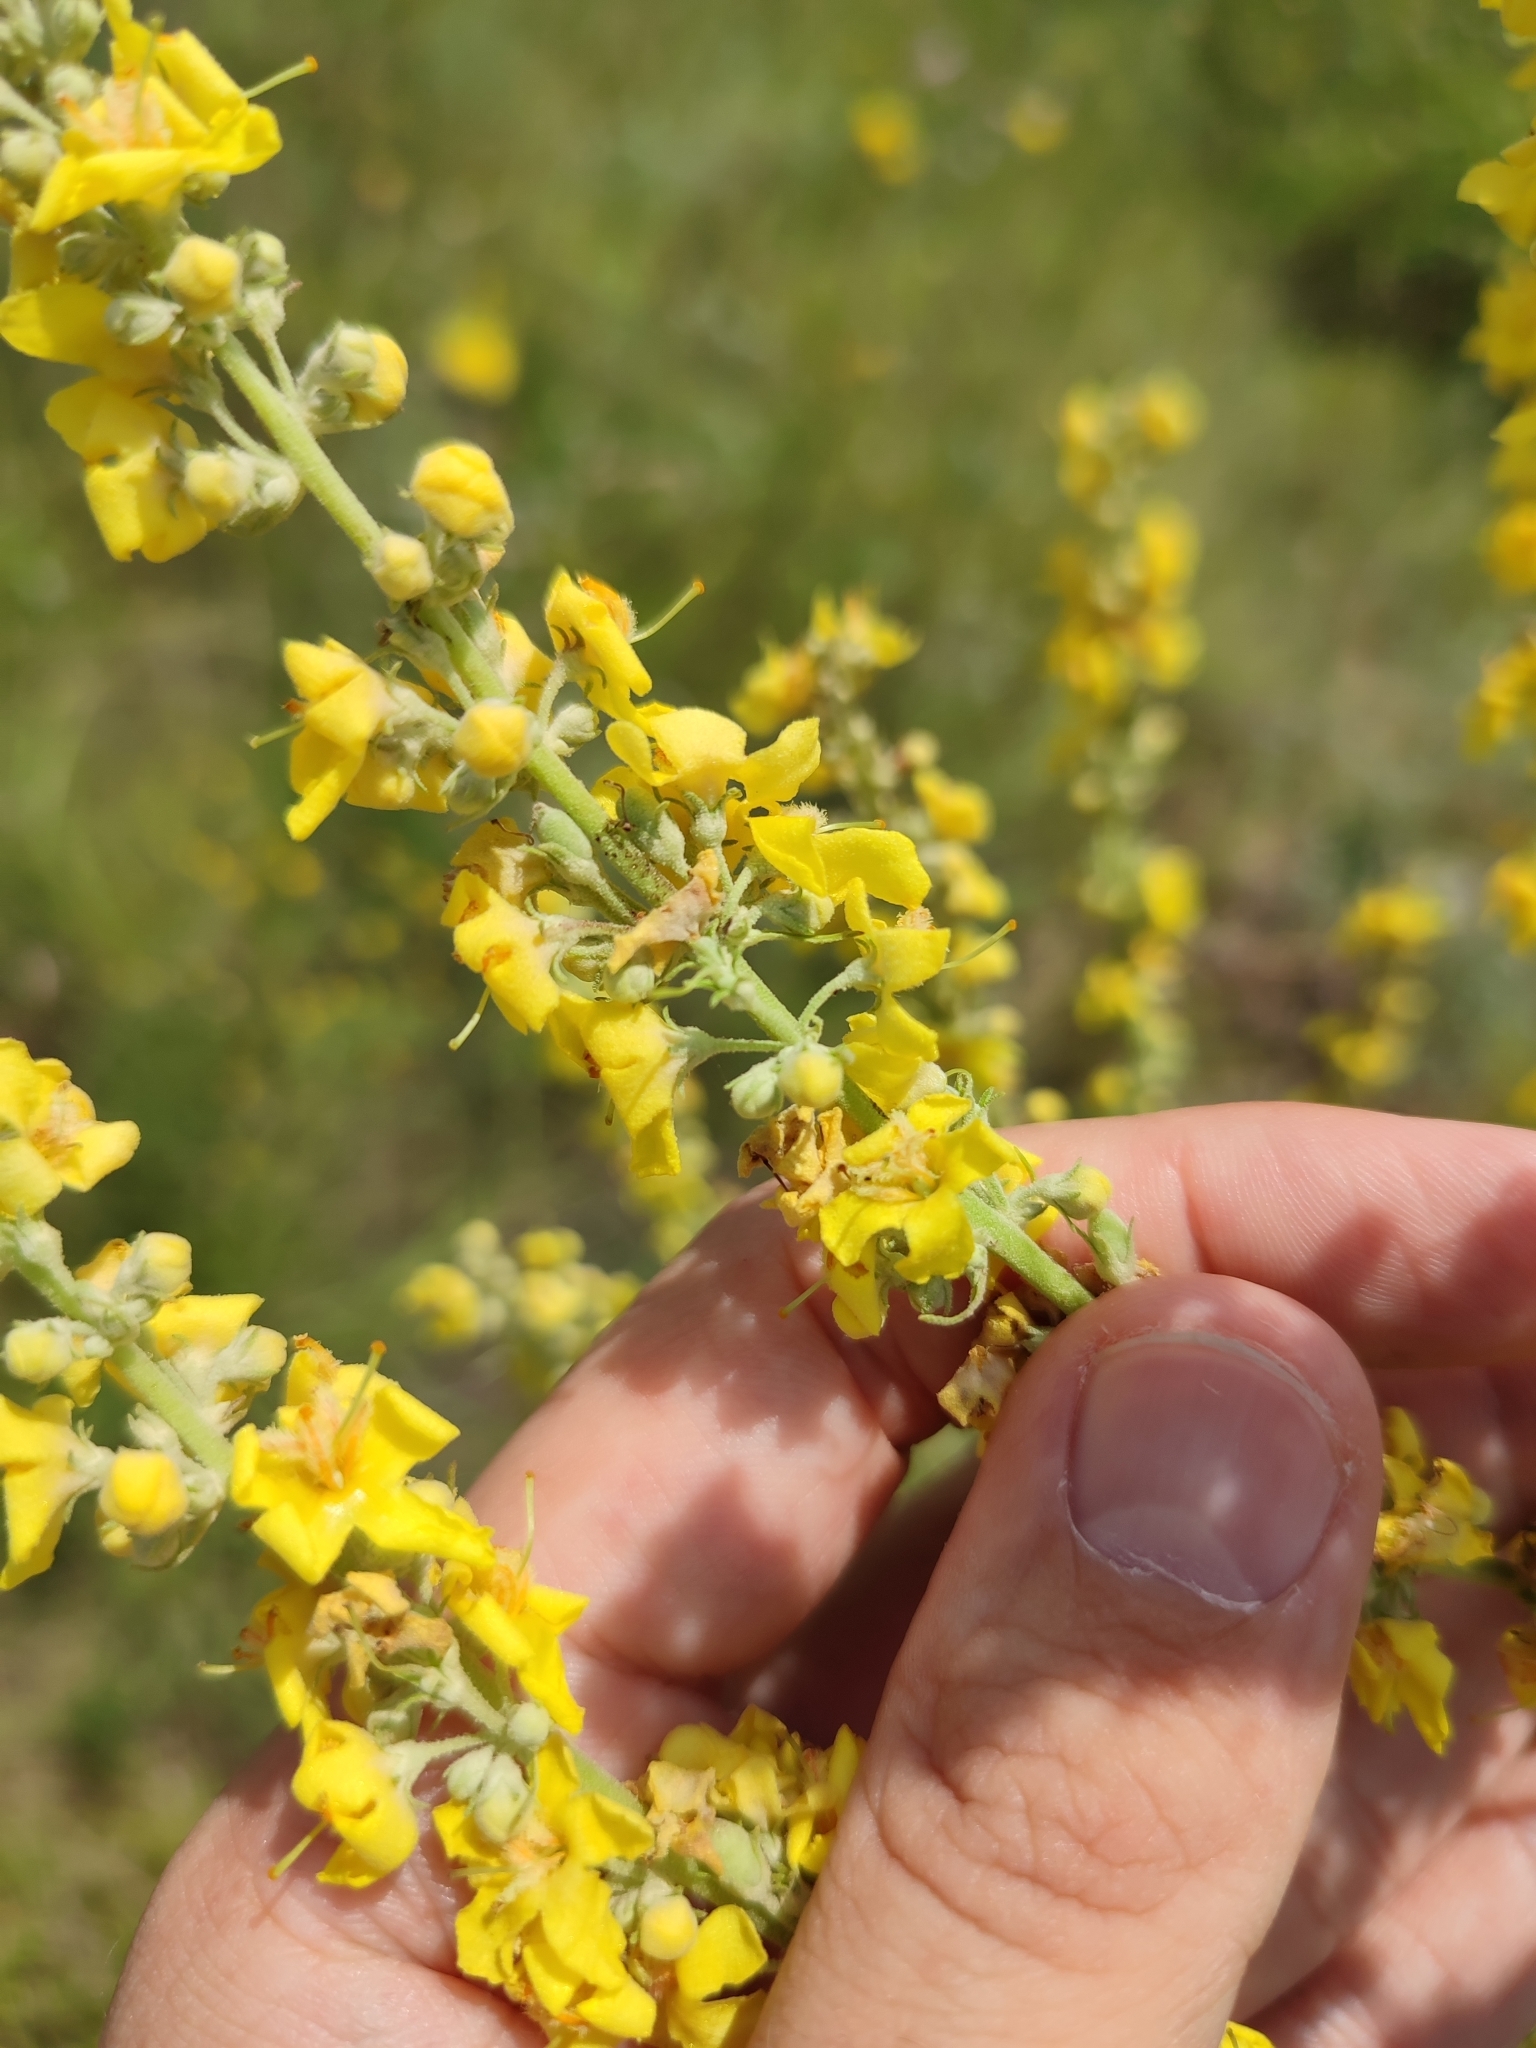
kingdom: Plantae
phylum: Tracheophyta
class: Magnoliopsida
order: Lamiales
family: Scrophulariaceae
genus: Verbascum
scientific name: Verbascum lychnitis
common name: White mullein
